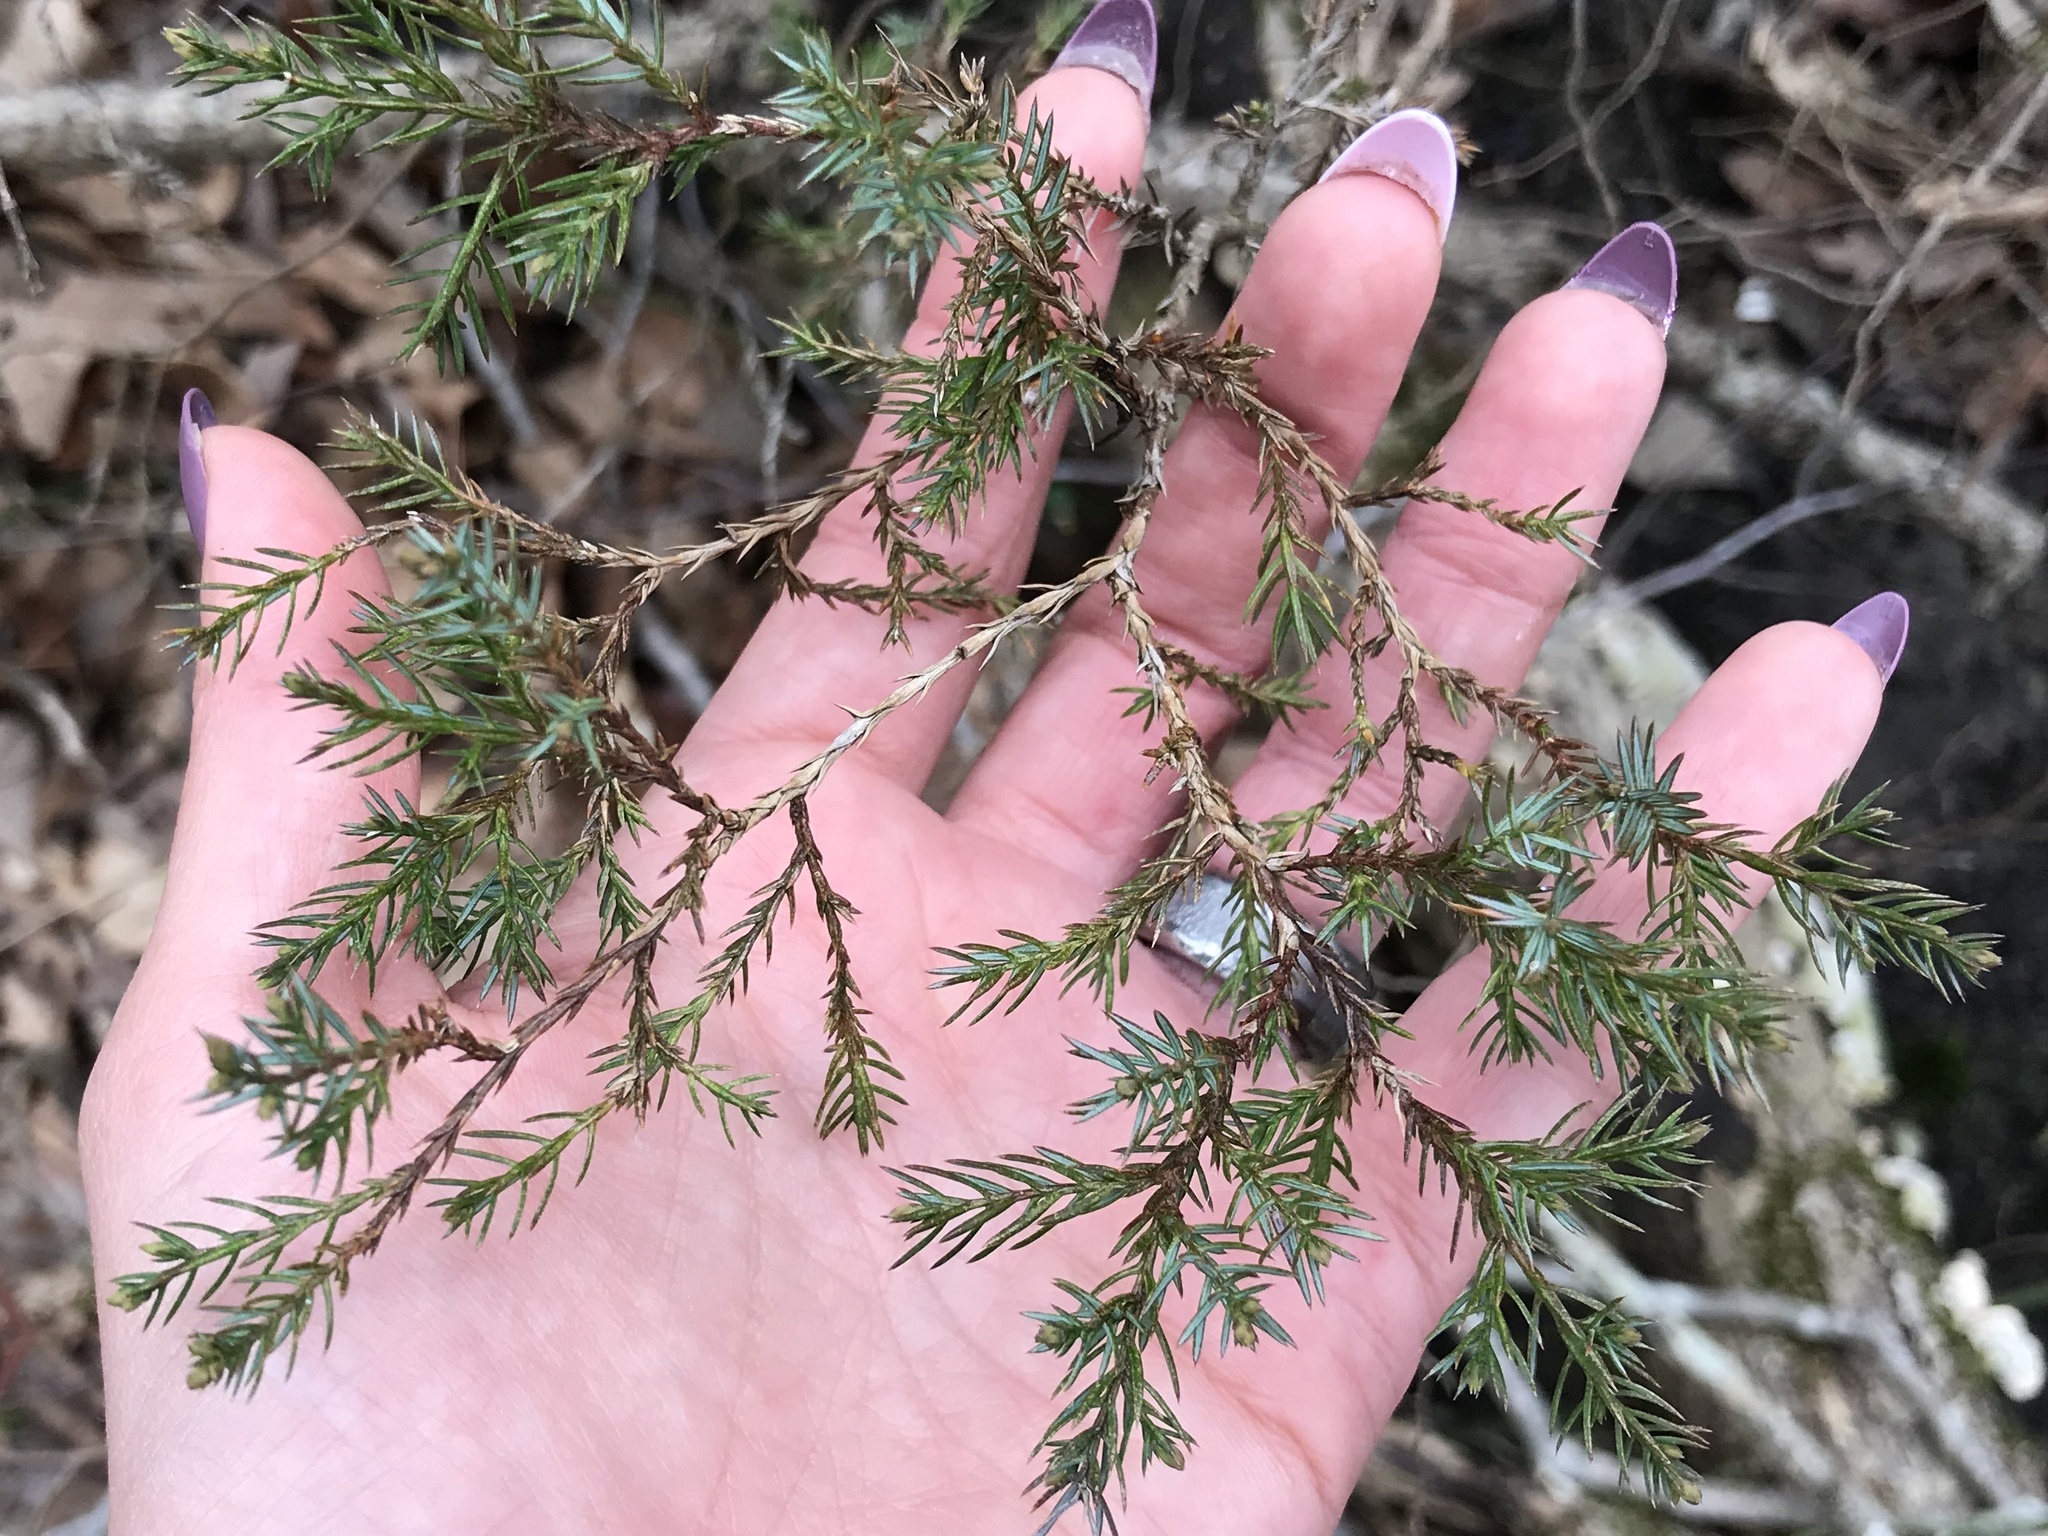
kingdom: Plantae
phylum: Tracheophyta
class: Pinopsida
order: Pinales
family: Cupressaceae
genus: Juniperus
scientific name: Juniperus virginiana
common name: Red juniper
